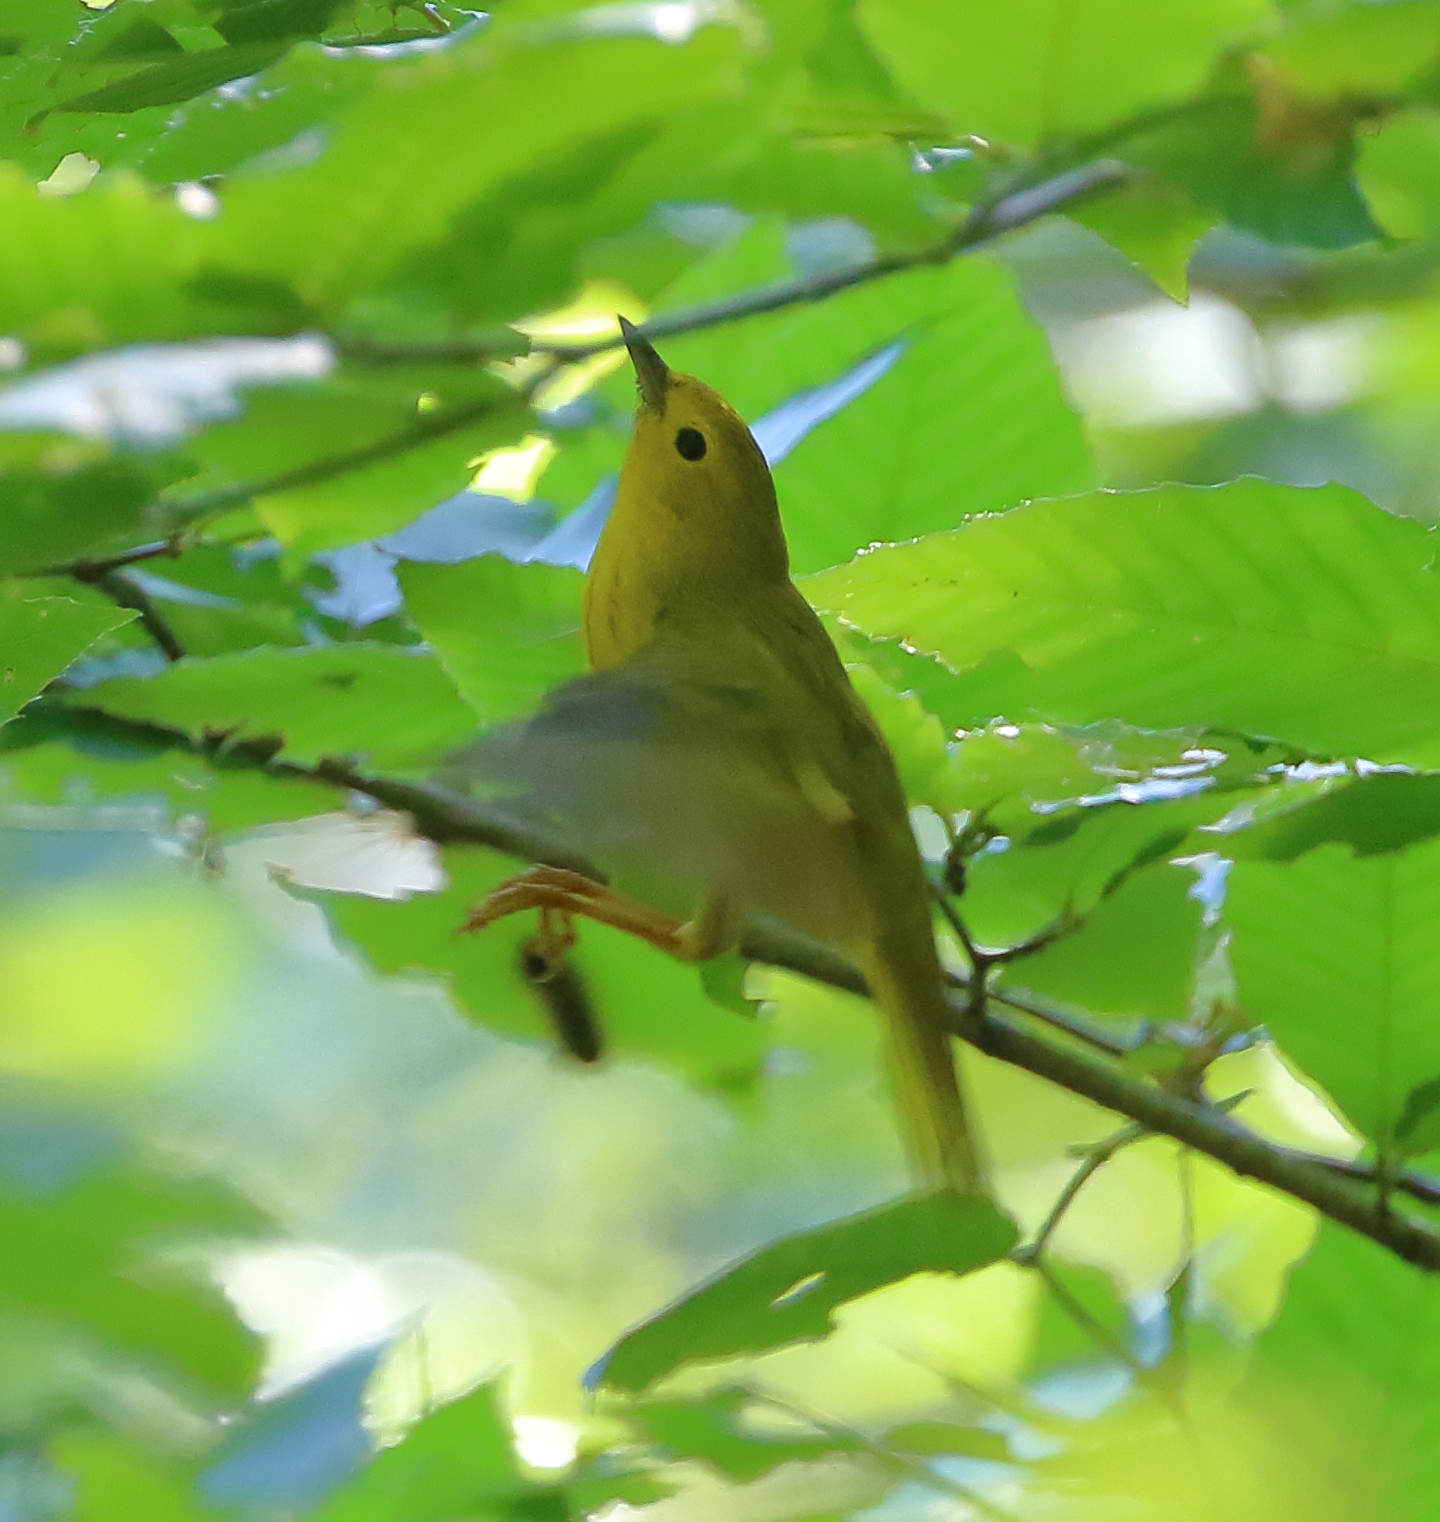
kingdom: Animalia
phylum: Chordata
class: Aves
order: Passeriformes
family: Parulidae
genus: Setophaga
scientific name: Setophaga petechia
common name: Yellow warbler
